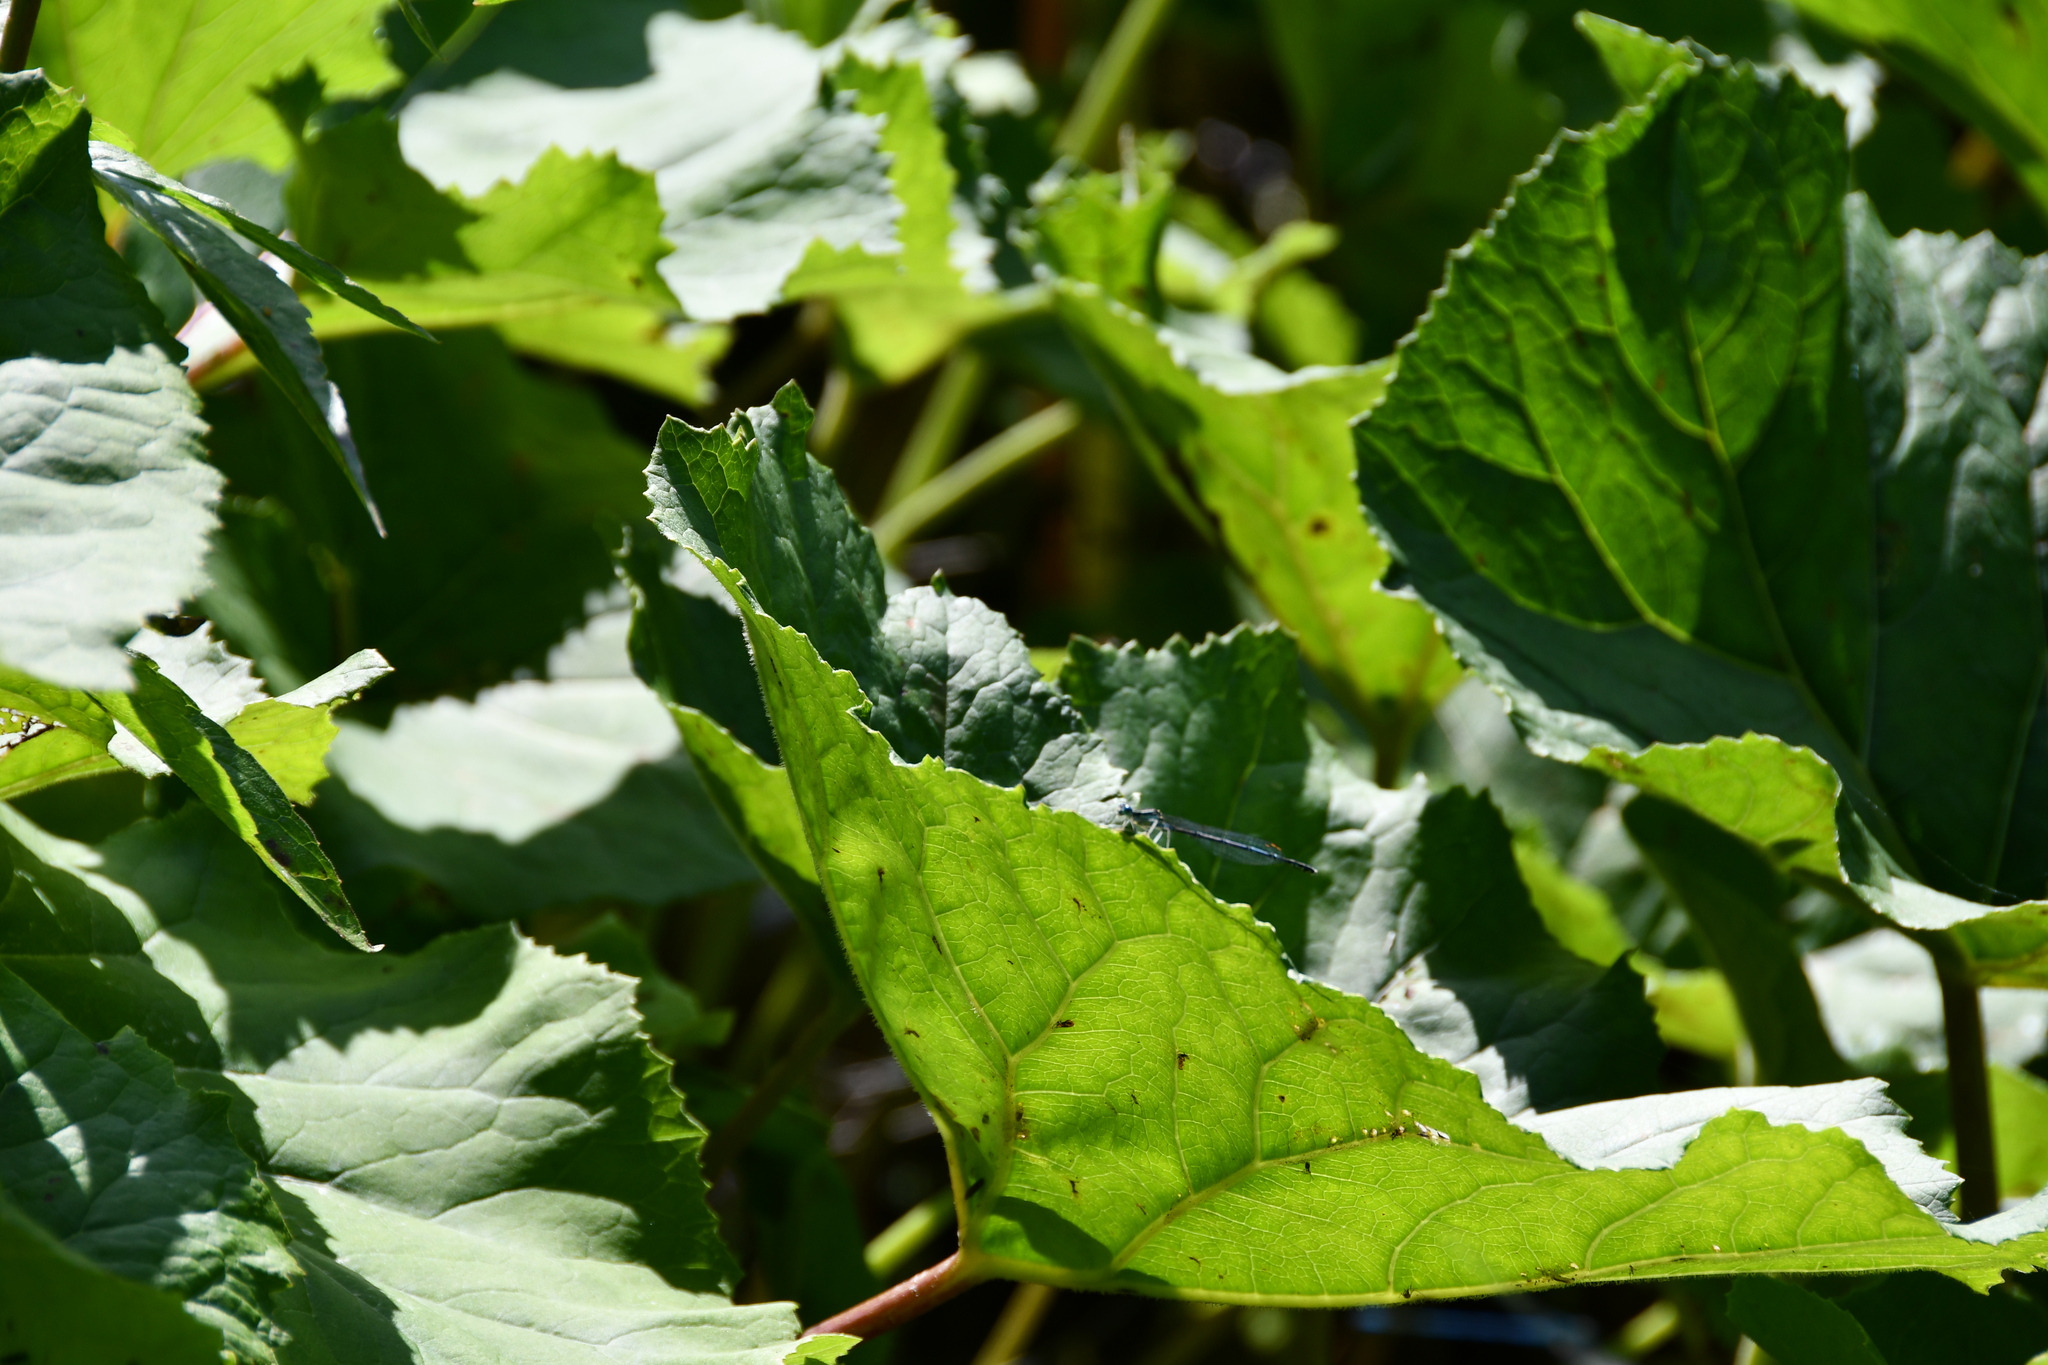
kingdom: Animalia
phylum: Arthropoda
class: Insecta
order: Odonata
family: Platycnemididae
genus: Platycnemis
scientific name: Platycnemis pennipes
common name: White-legged damselfly
